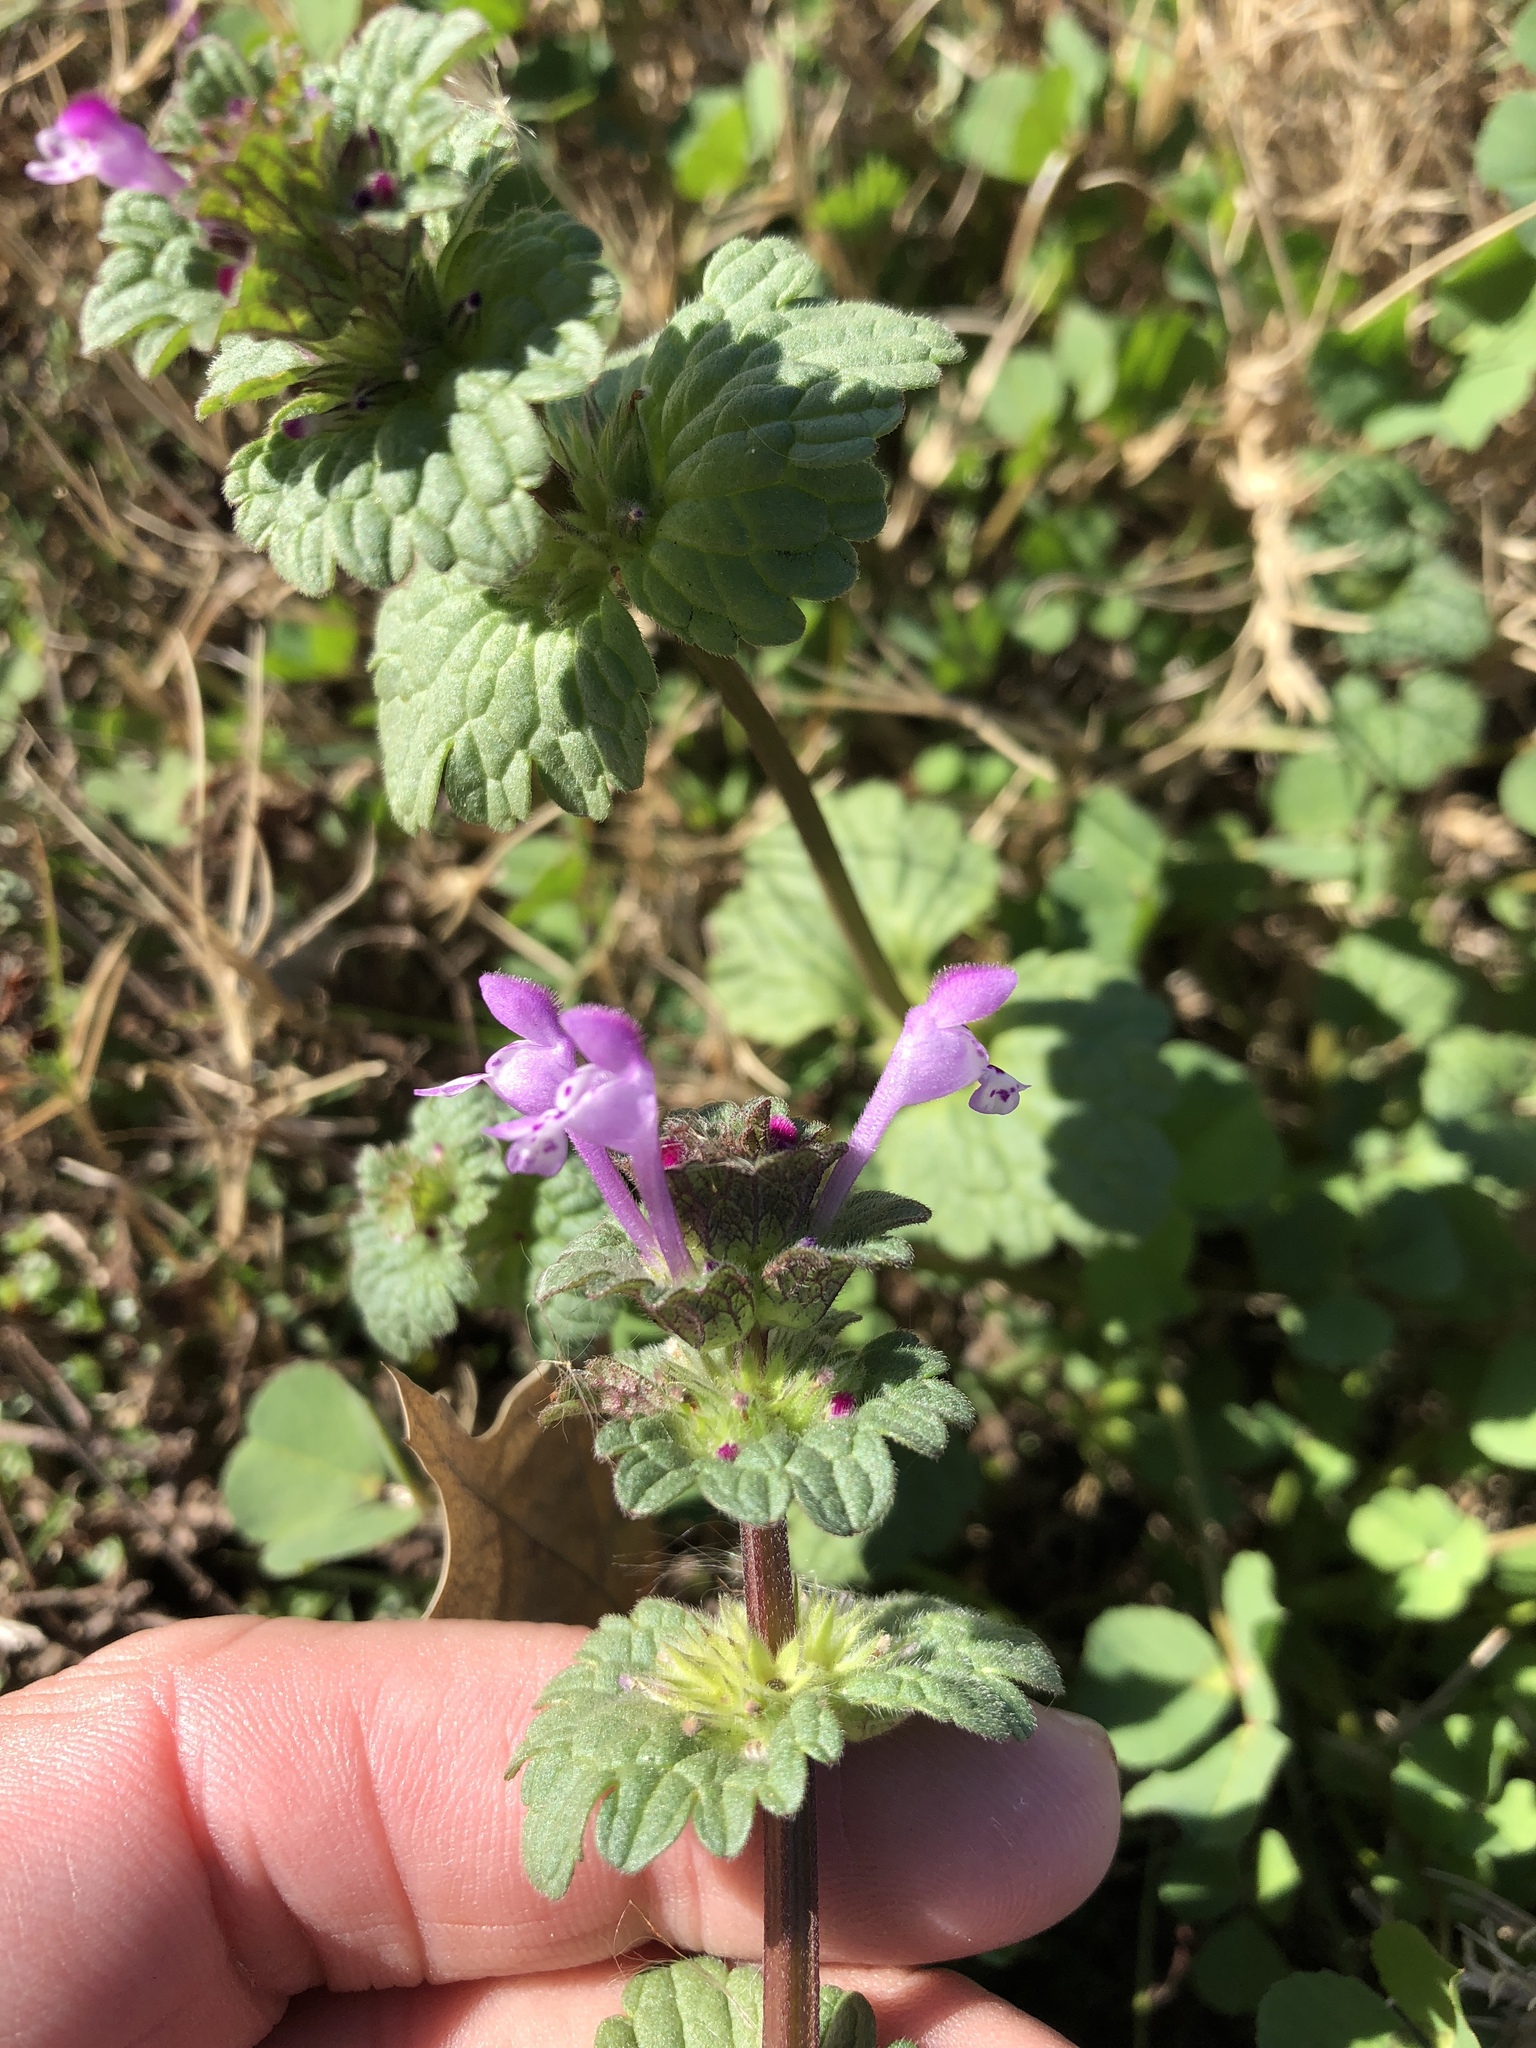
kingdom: Plantae
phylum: Tracheophyta
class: Magnoliopsida
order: Lamiales
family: Lamiaceae
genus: Lamium
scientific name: Lamium amplexicaule
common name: Henbit dead-nettle
